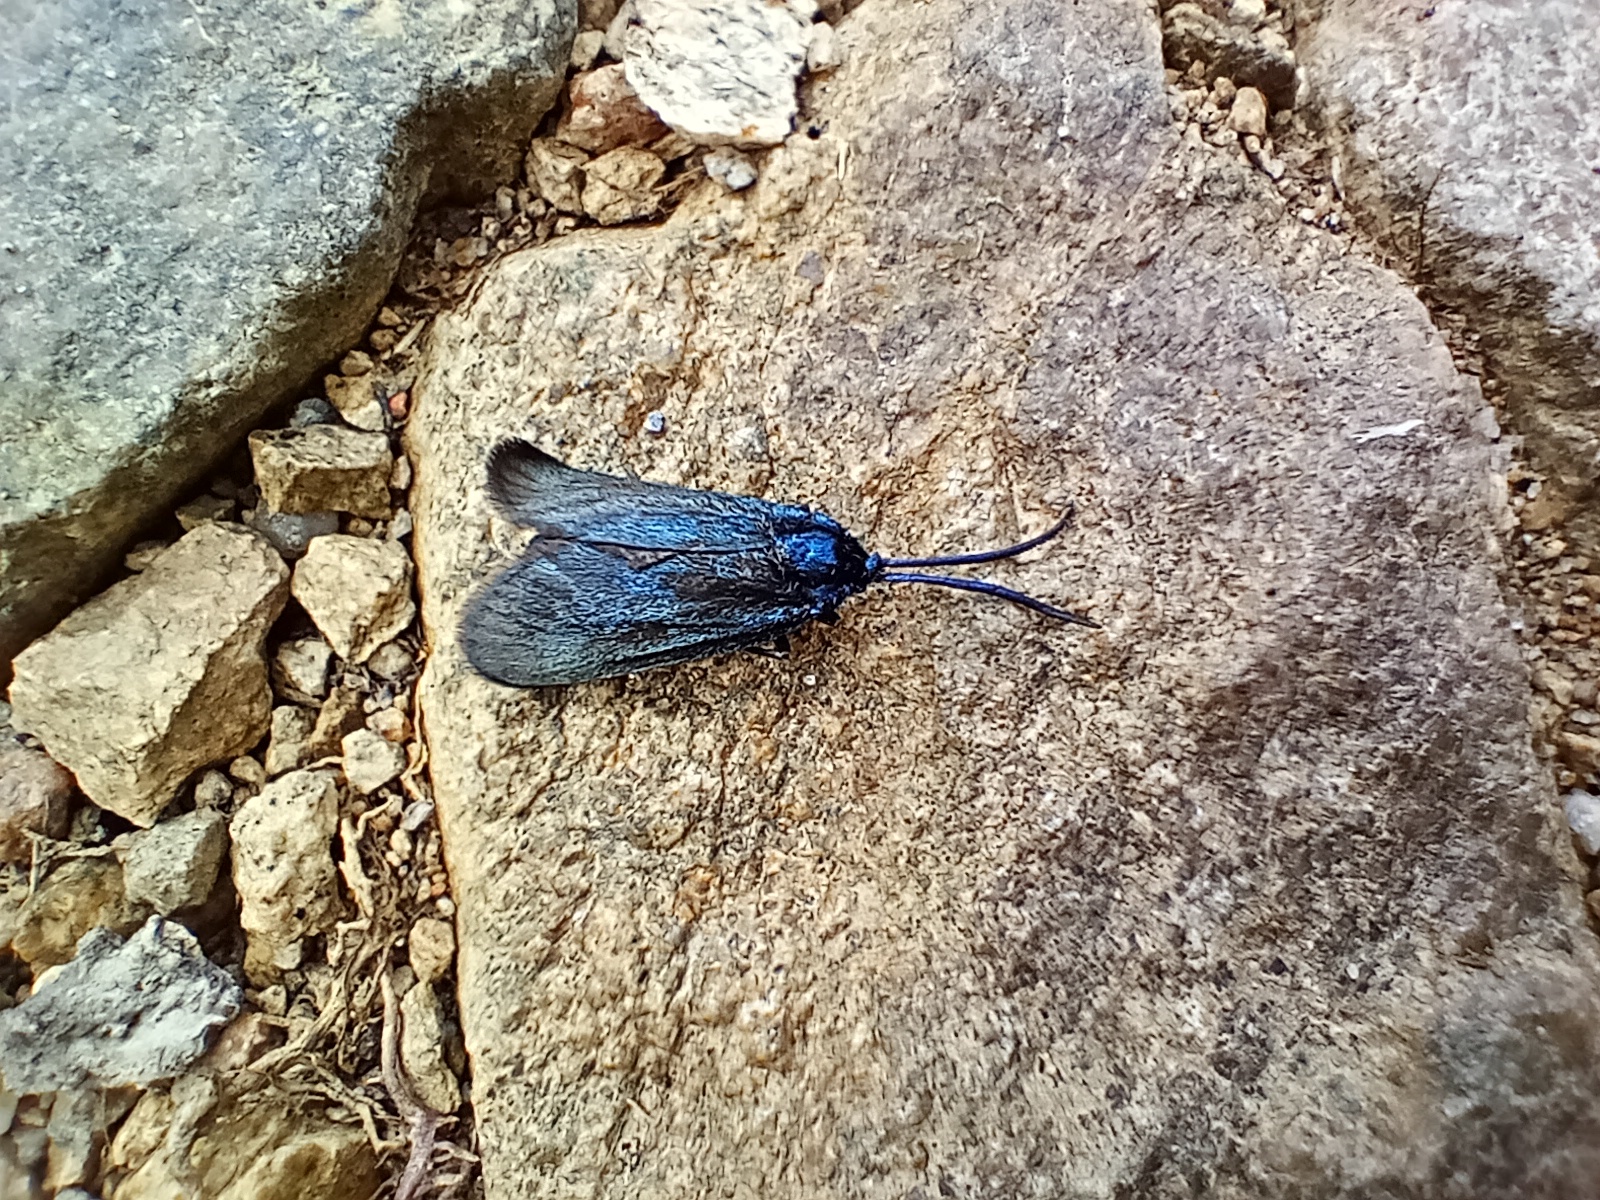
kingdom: Animalia
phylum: Arthropoda
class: Insecta
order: Lepidoptera
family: Zygaenidae
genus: Rhagades
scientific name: Rhagades pruni
